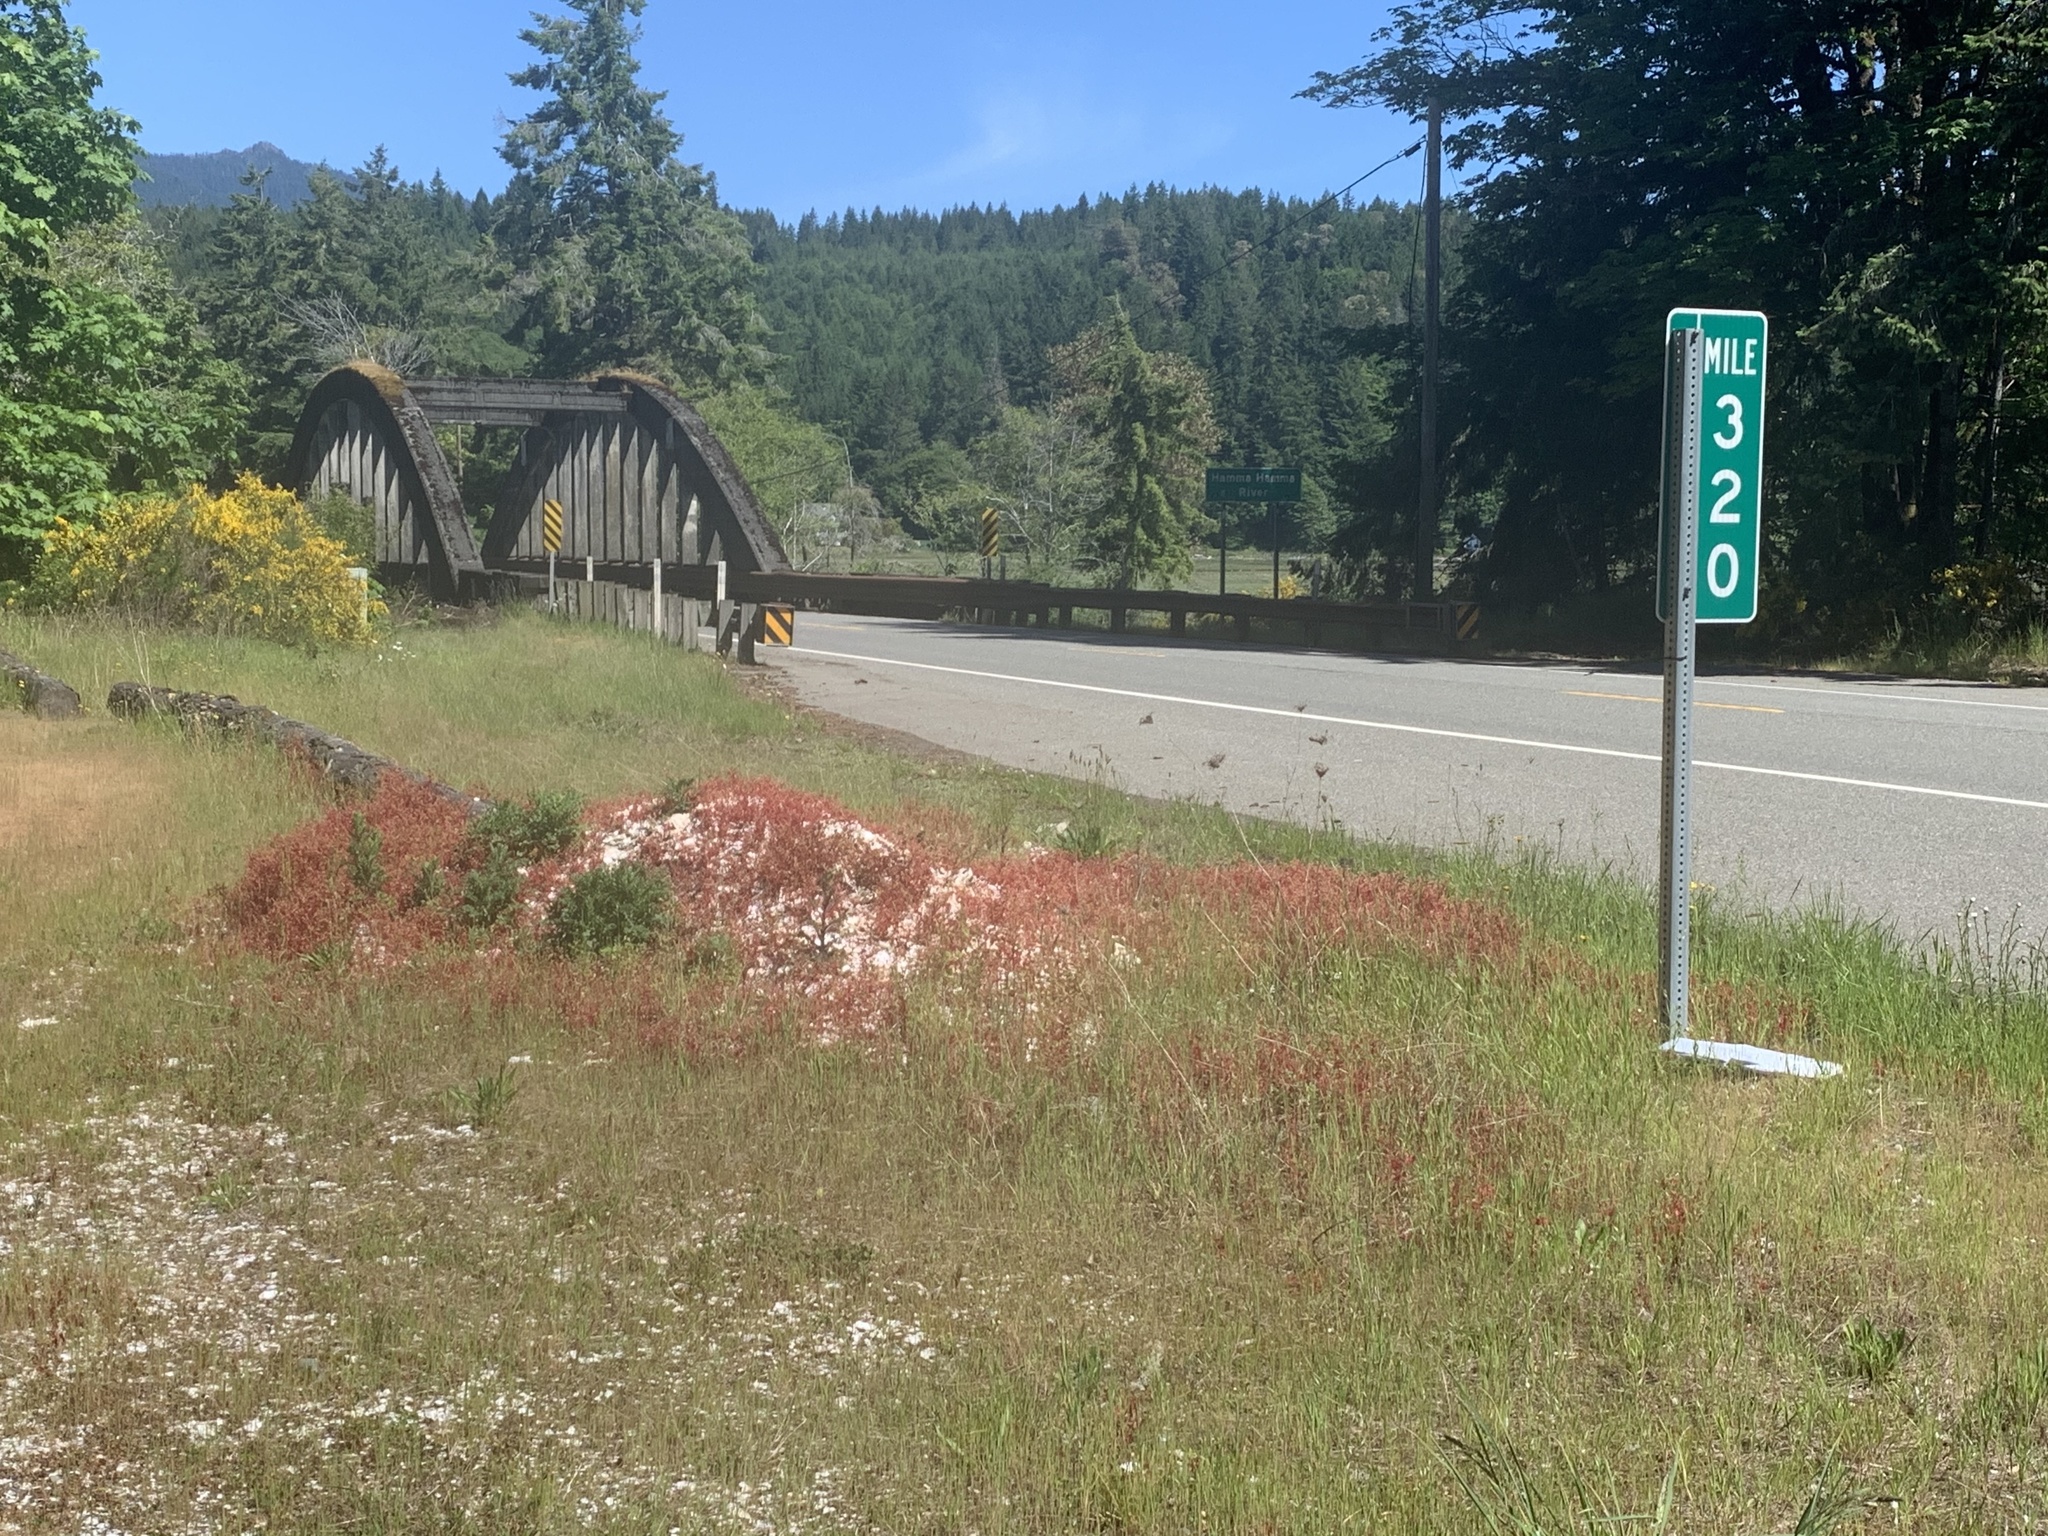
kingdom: Plantae
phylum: Tracheophyta
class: Magnoliopsida
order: Geraniales
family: Geraniaceae
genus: Geranium
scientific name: Geranium lucidum
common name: Shining crane's-bill
